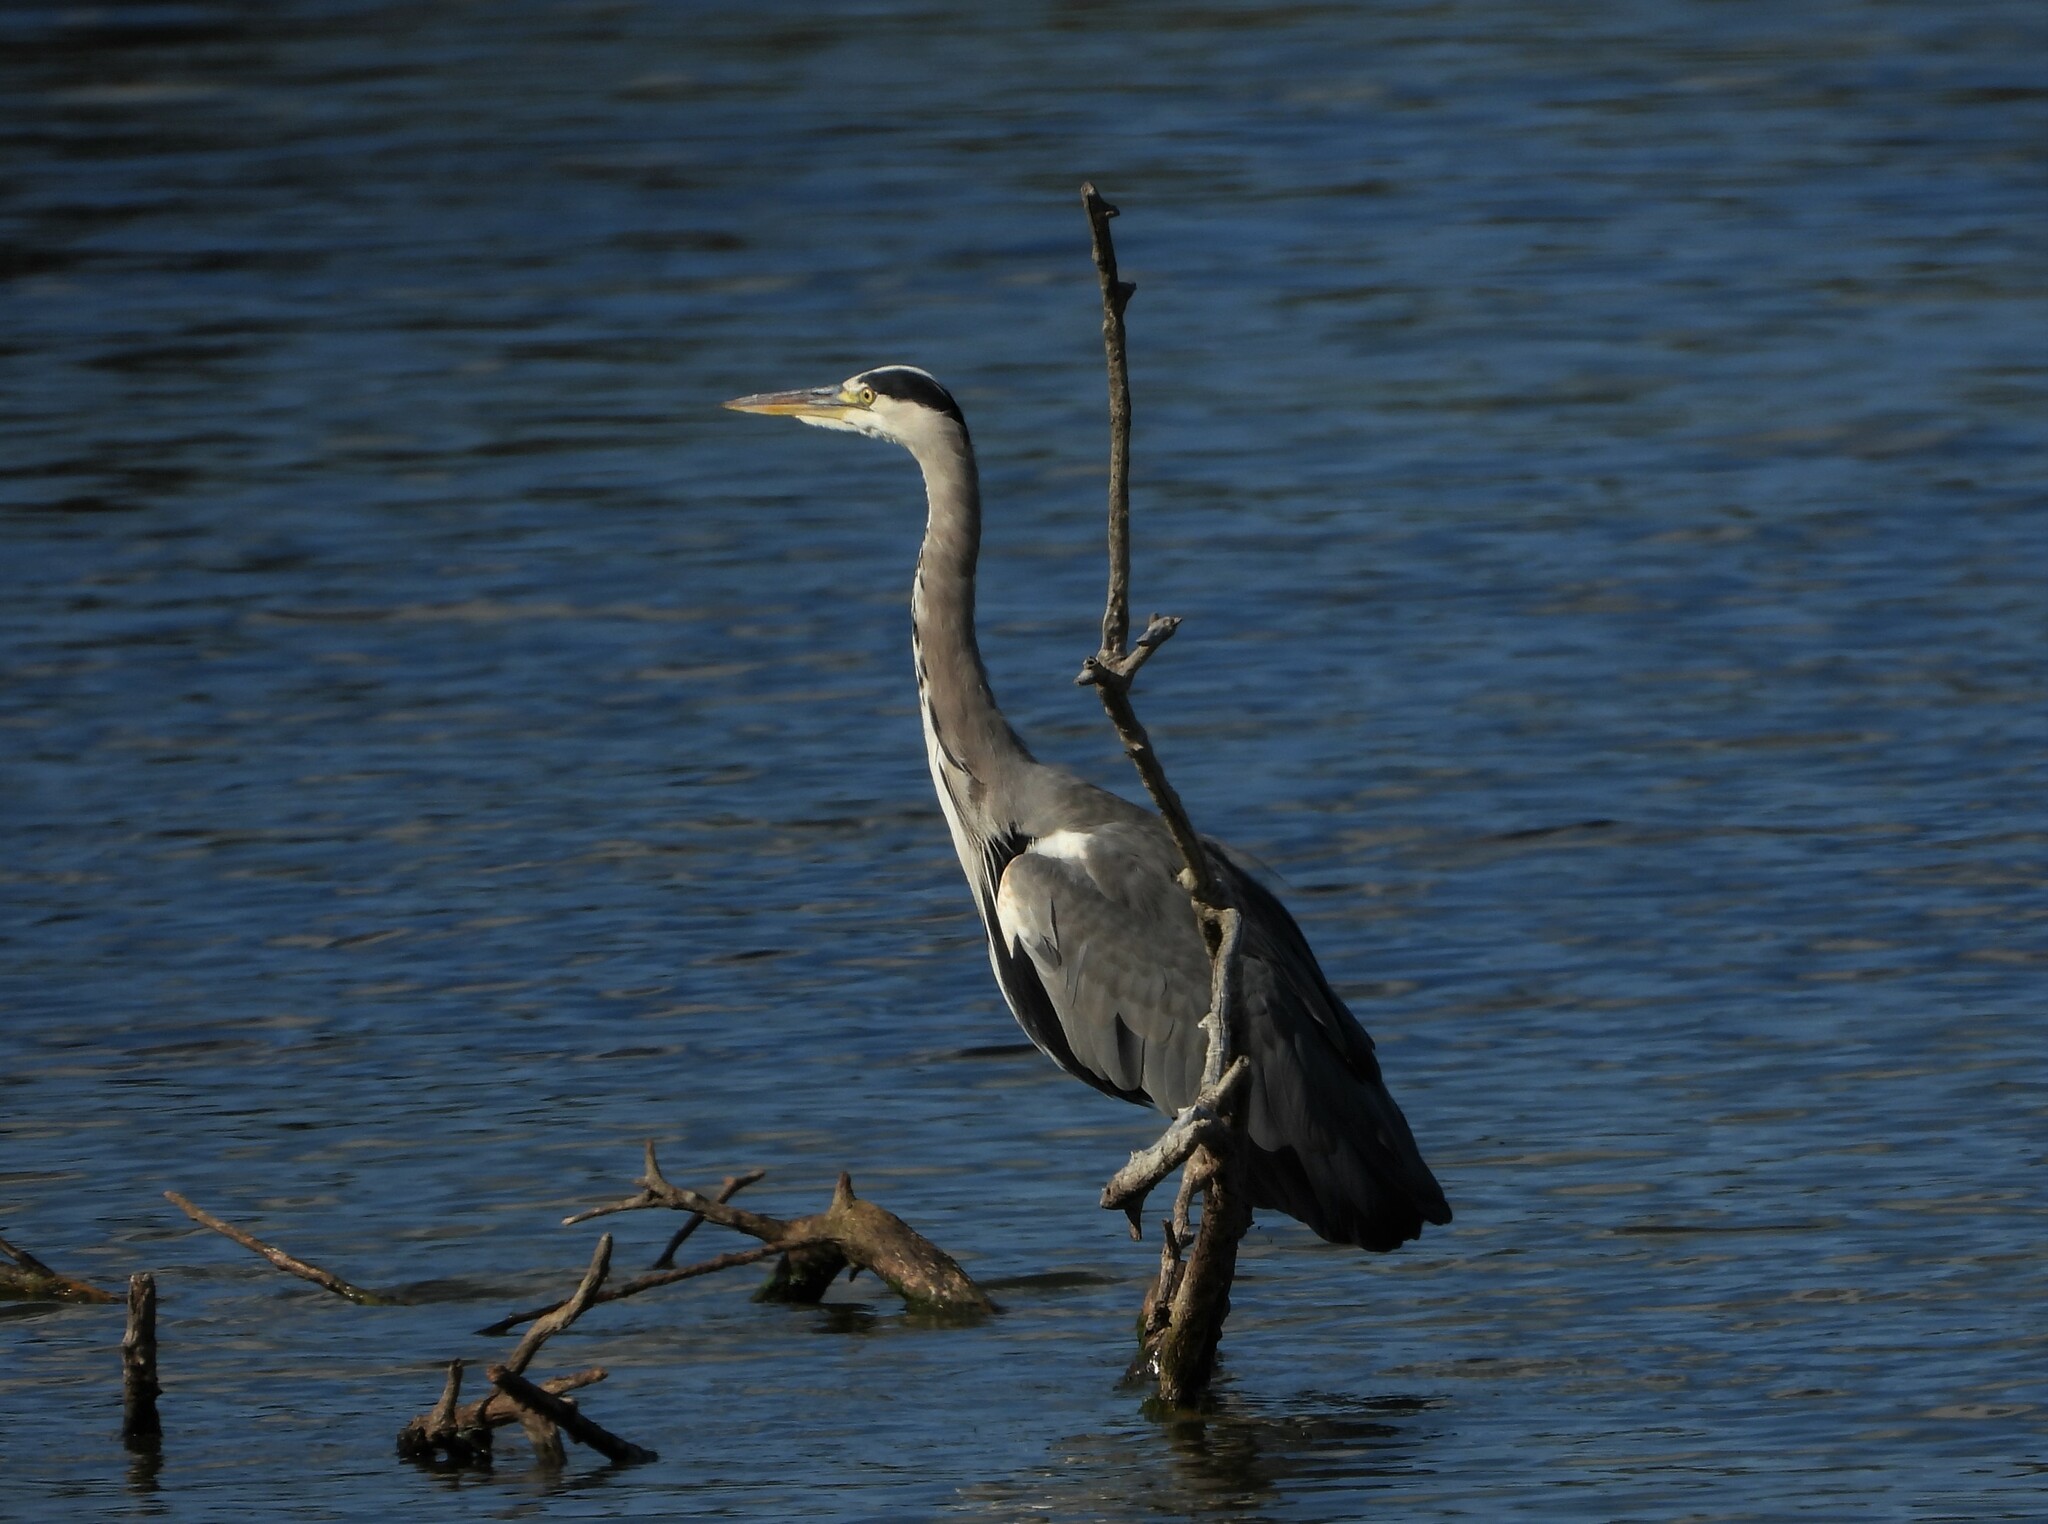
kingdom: Animalia
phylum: Chordata
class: Aves
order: Pelecaniformes
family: Ardeidae
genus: Ardea
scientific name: Ardea cinerea
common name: Grey heron
